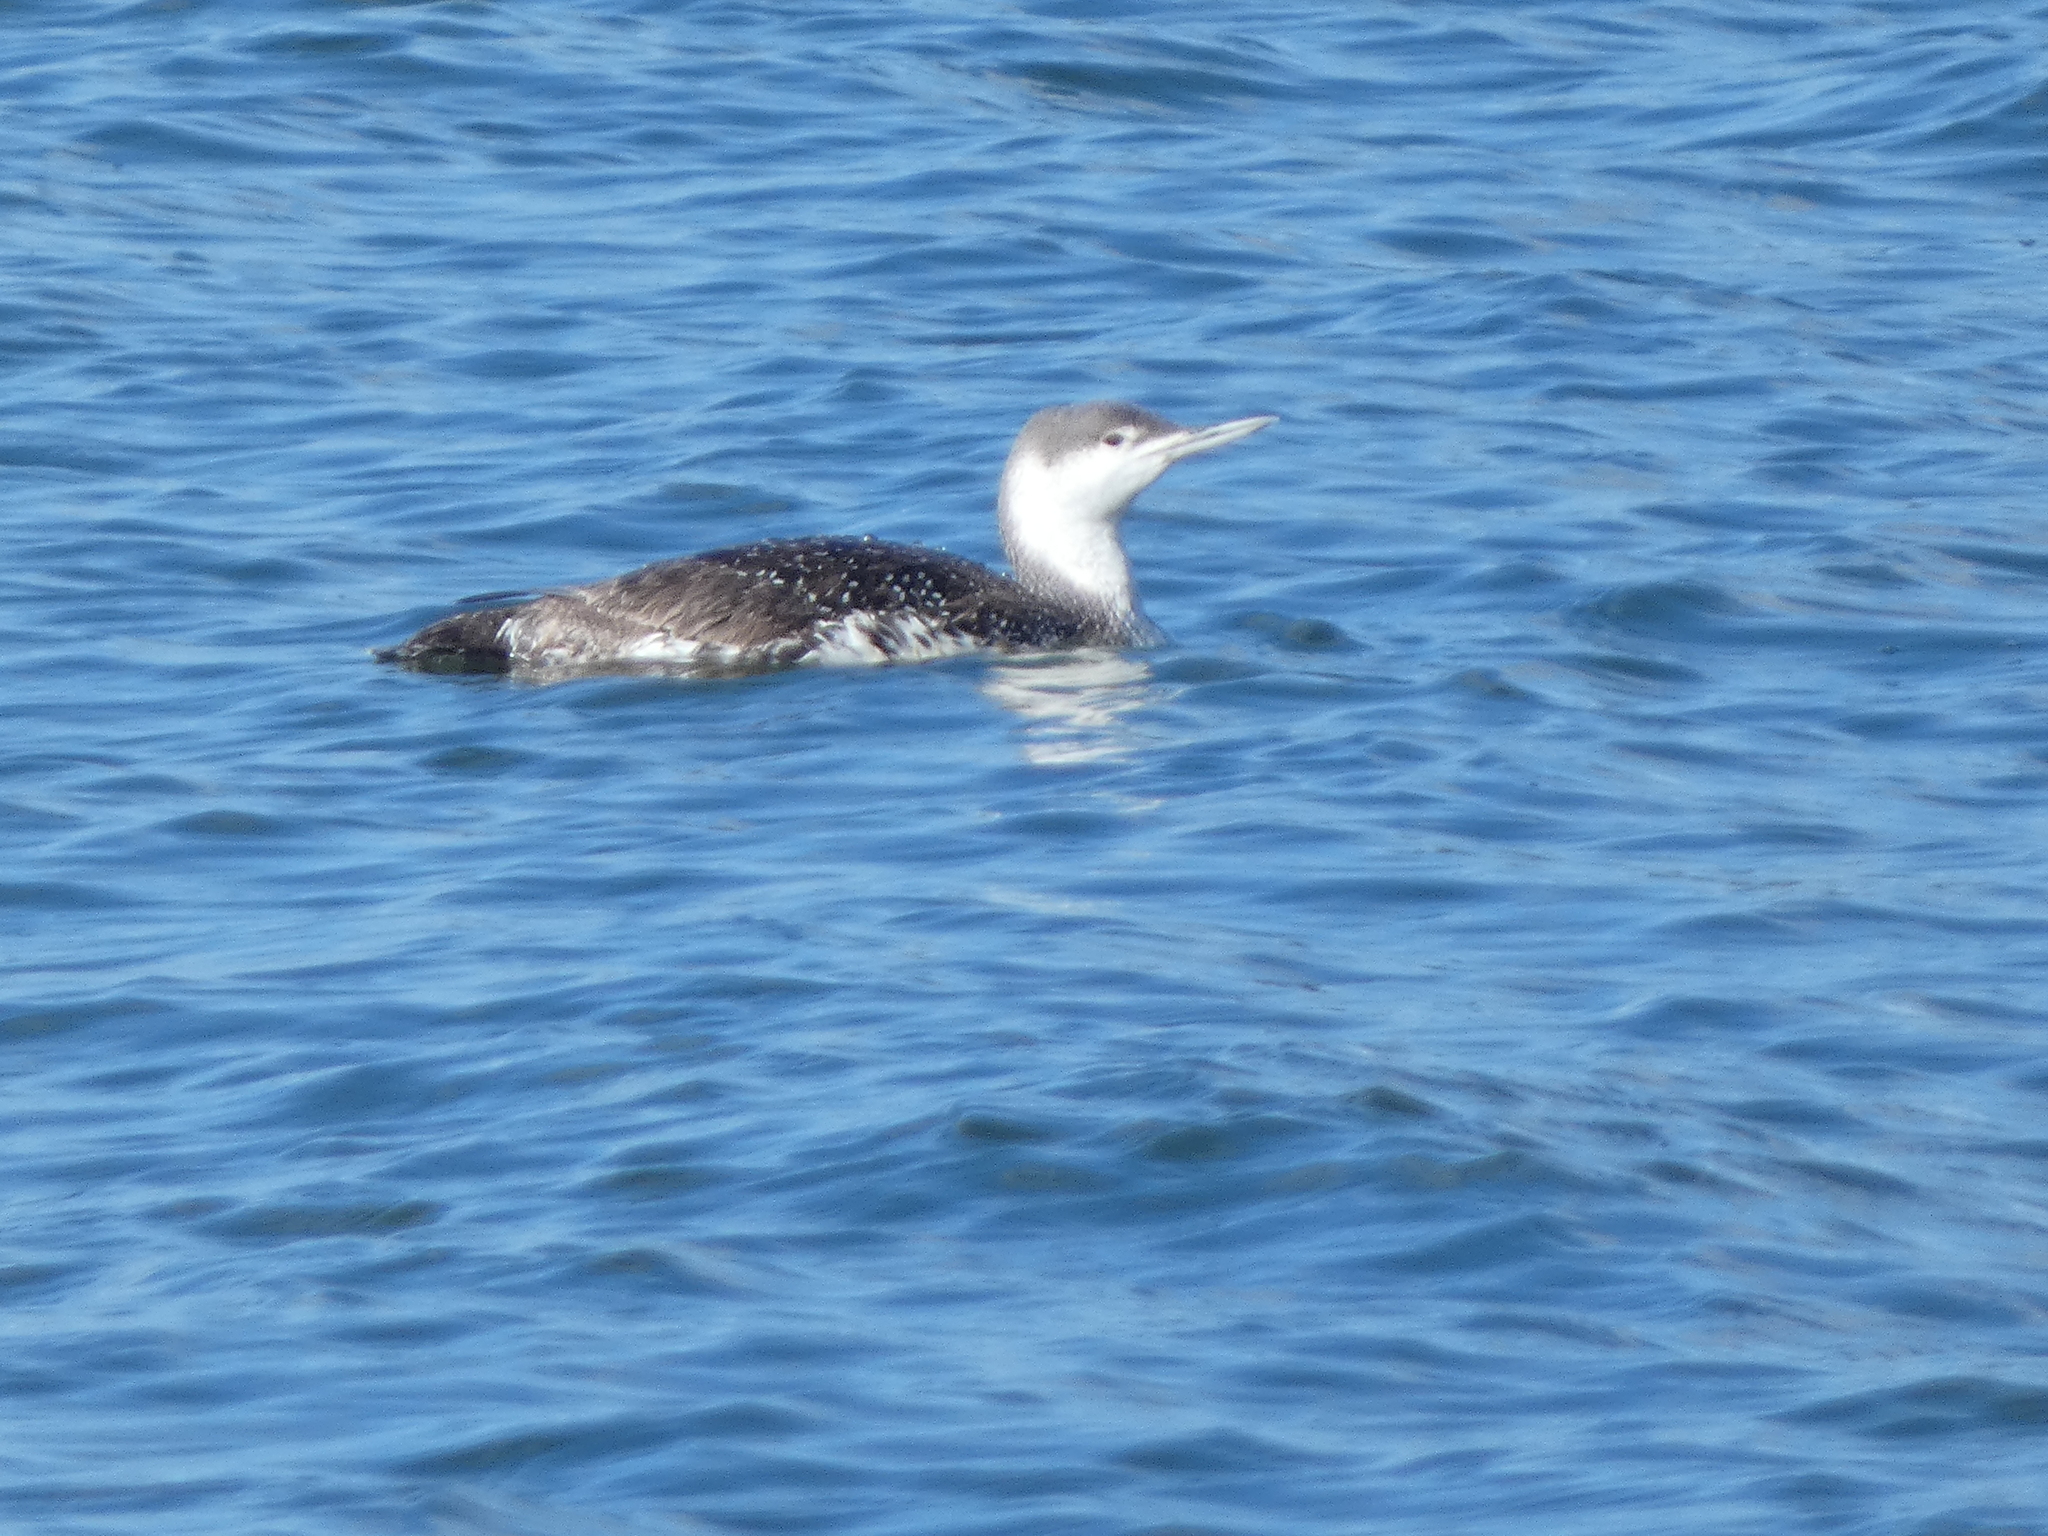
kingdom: Animalia
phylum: Chordata
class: Aves
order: Gaviiformes
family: Gaviidae
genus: Gavia
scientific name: Gavia stellata
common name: Red-throated loon
